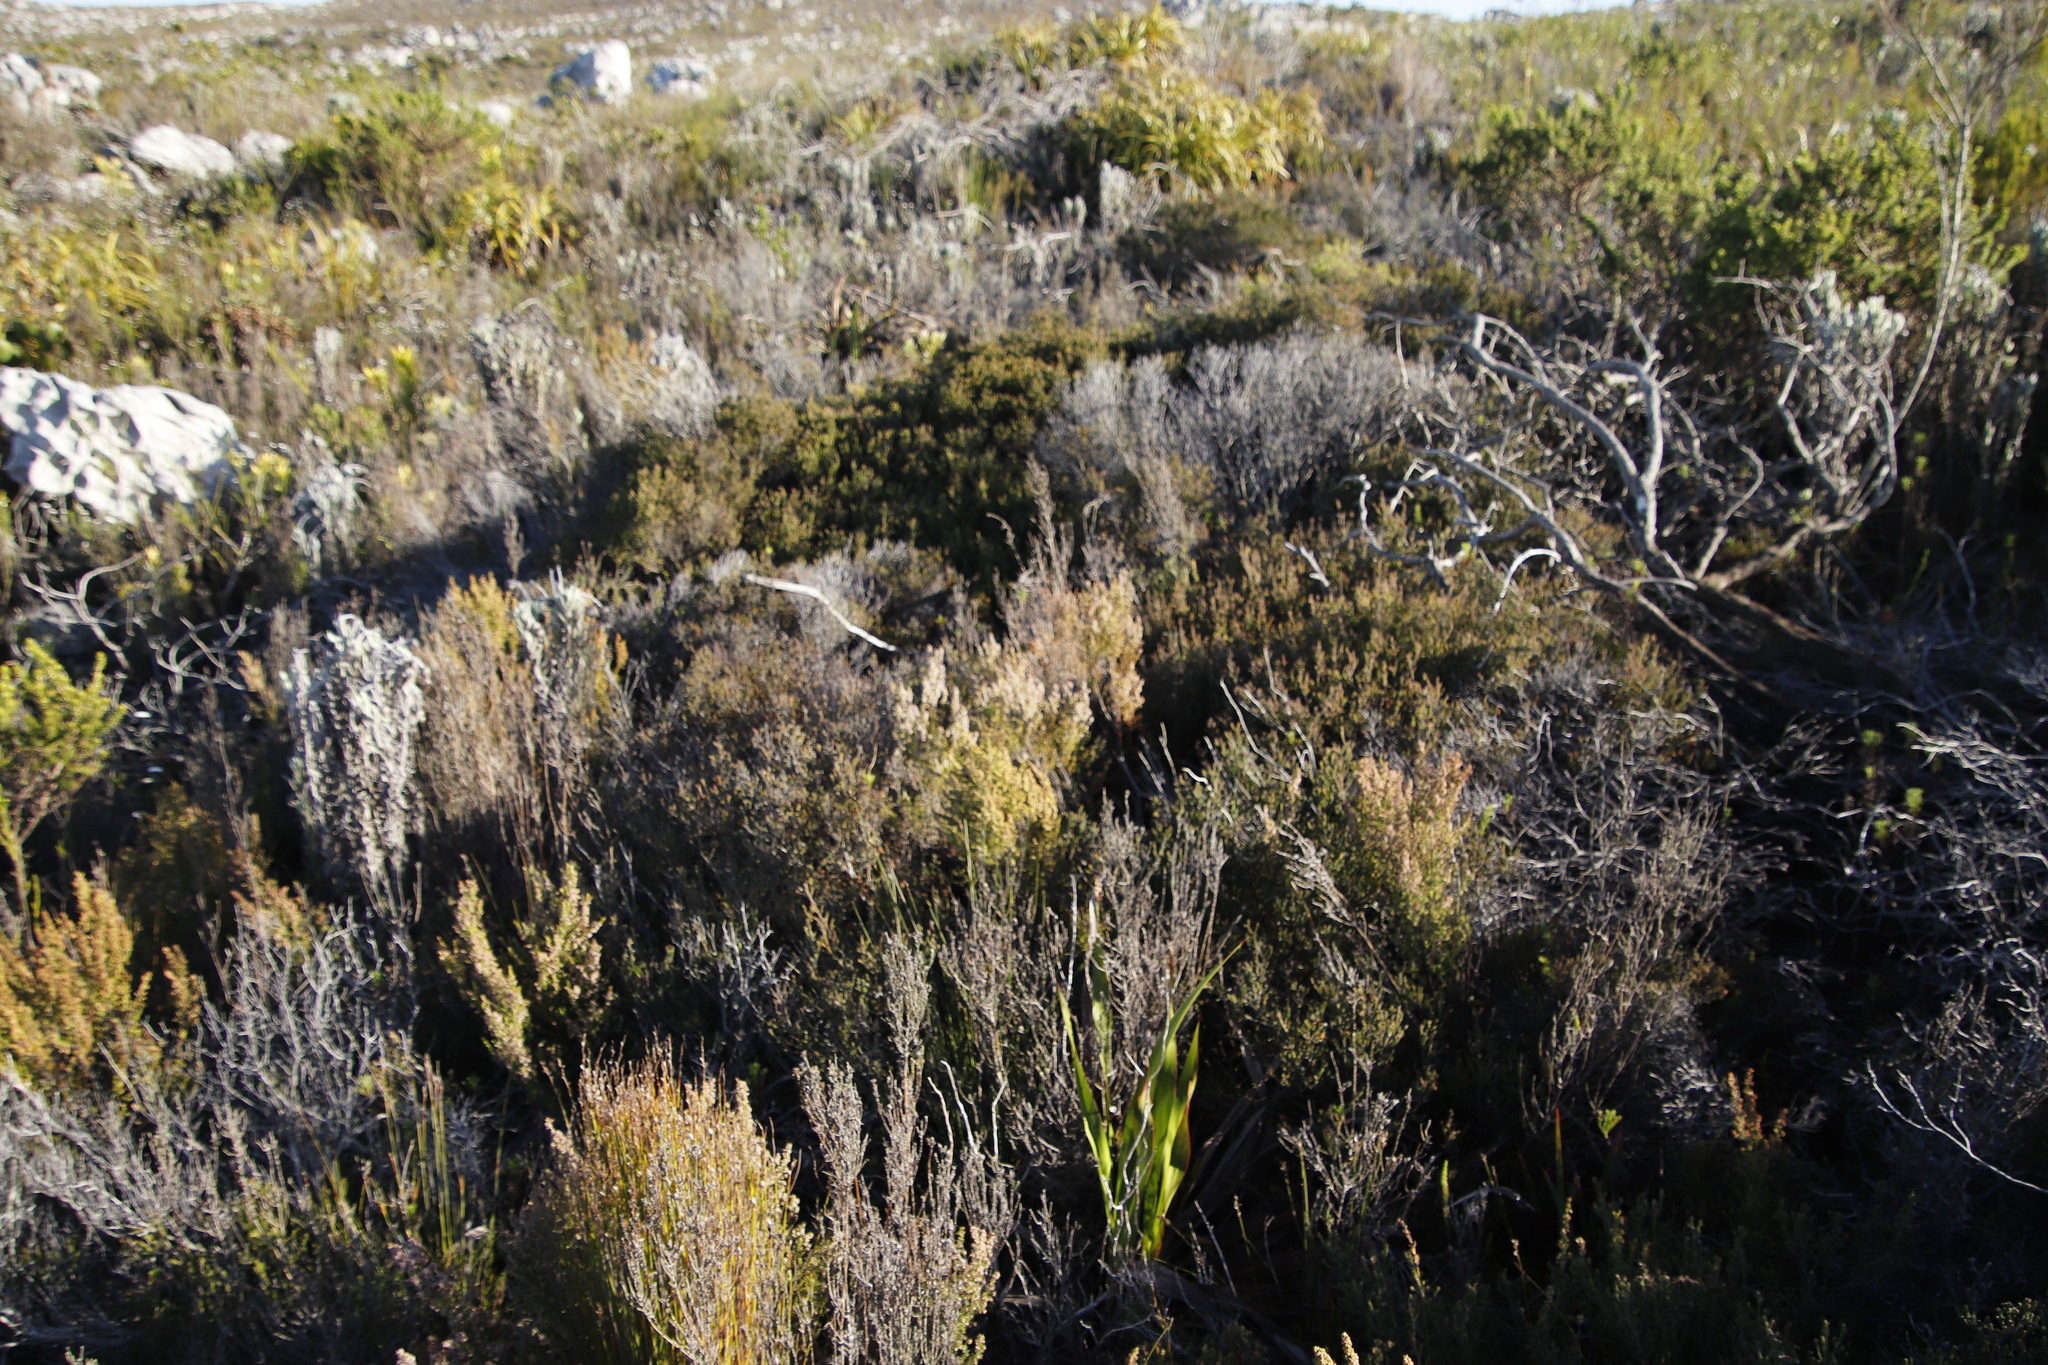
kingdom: Plantae
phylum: Tracheophyta
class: Magnoliopsida
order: Ericales
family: Ericaceae
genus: Erica
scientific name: Erica hispidula
